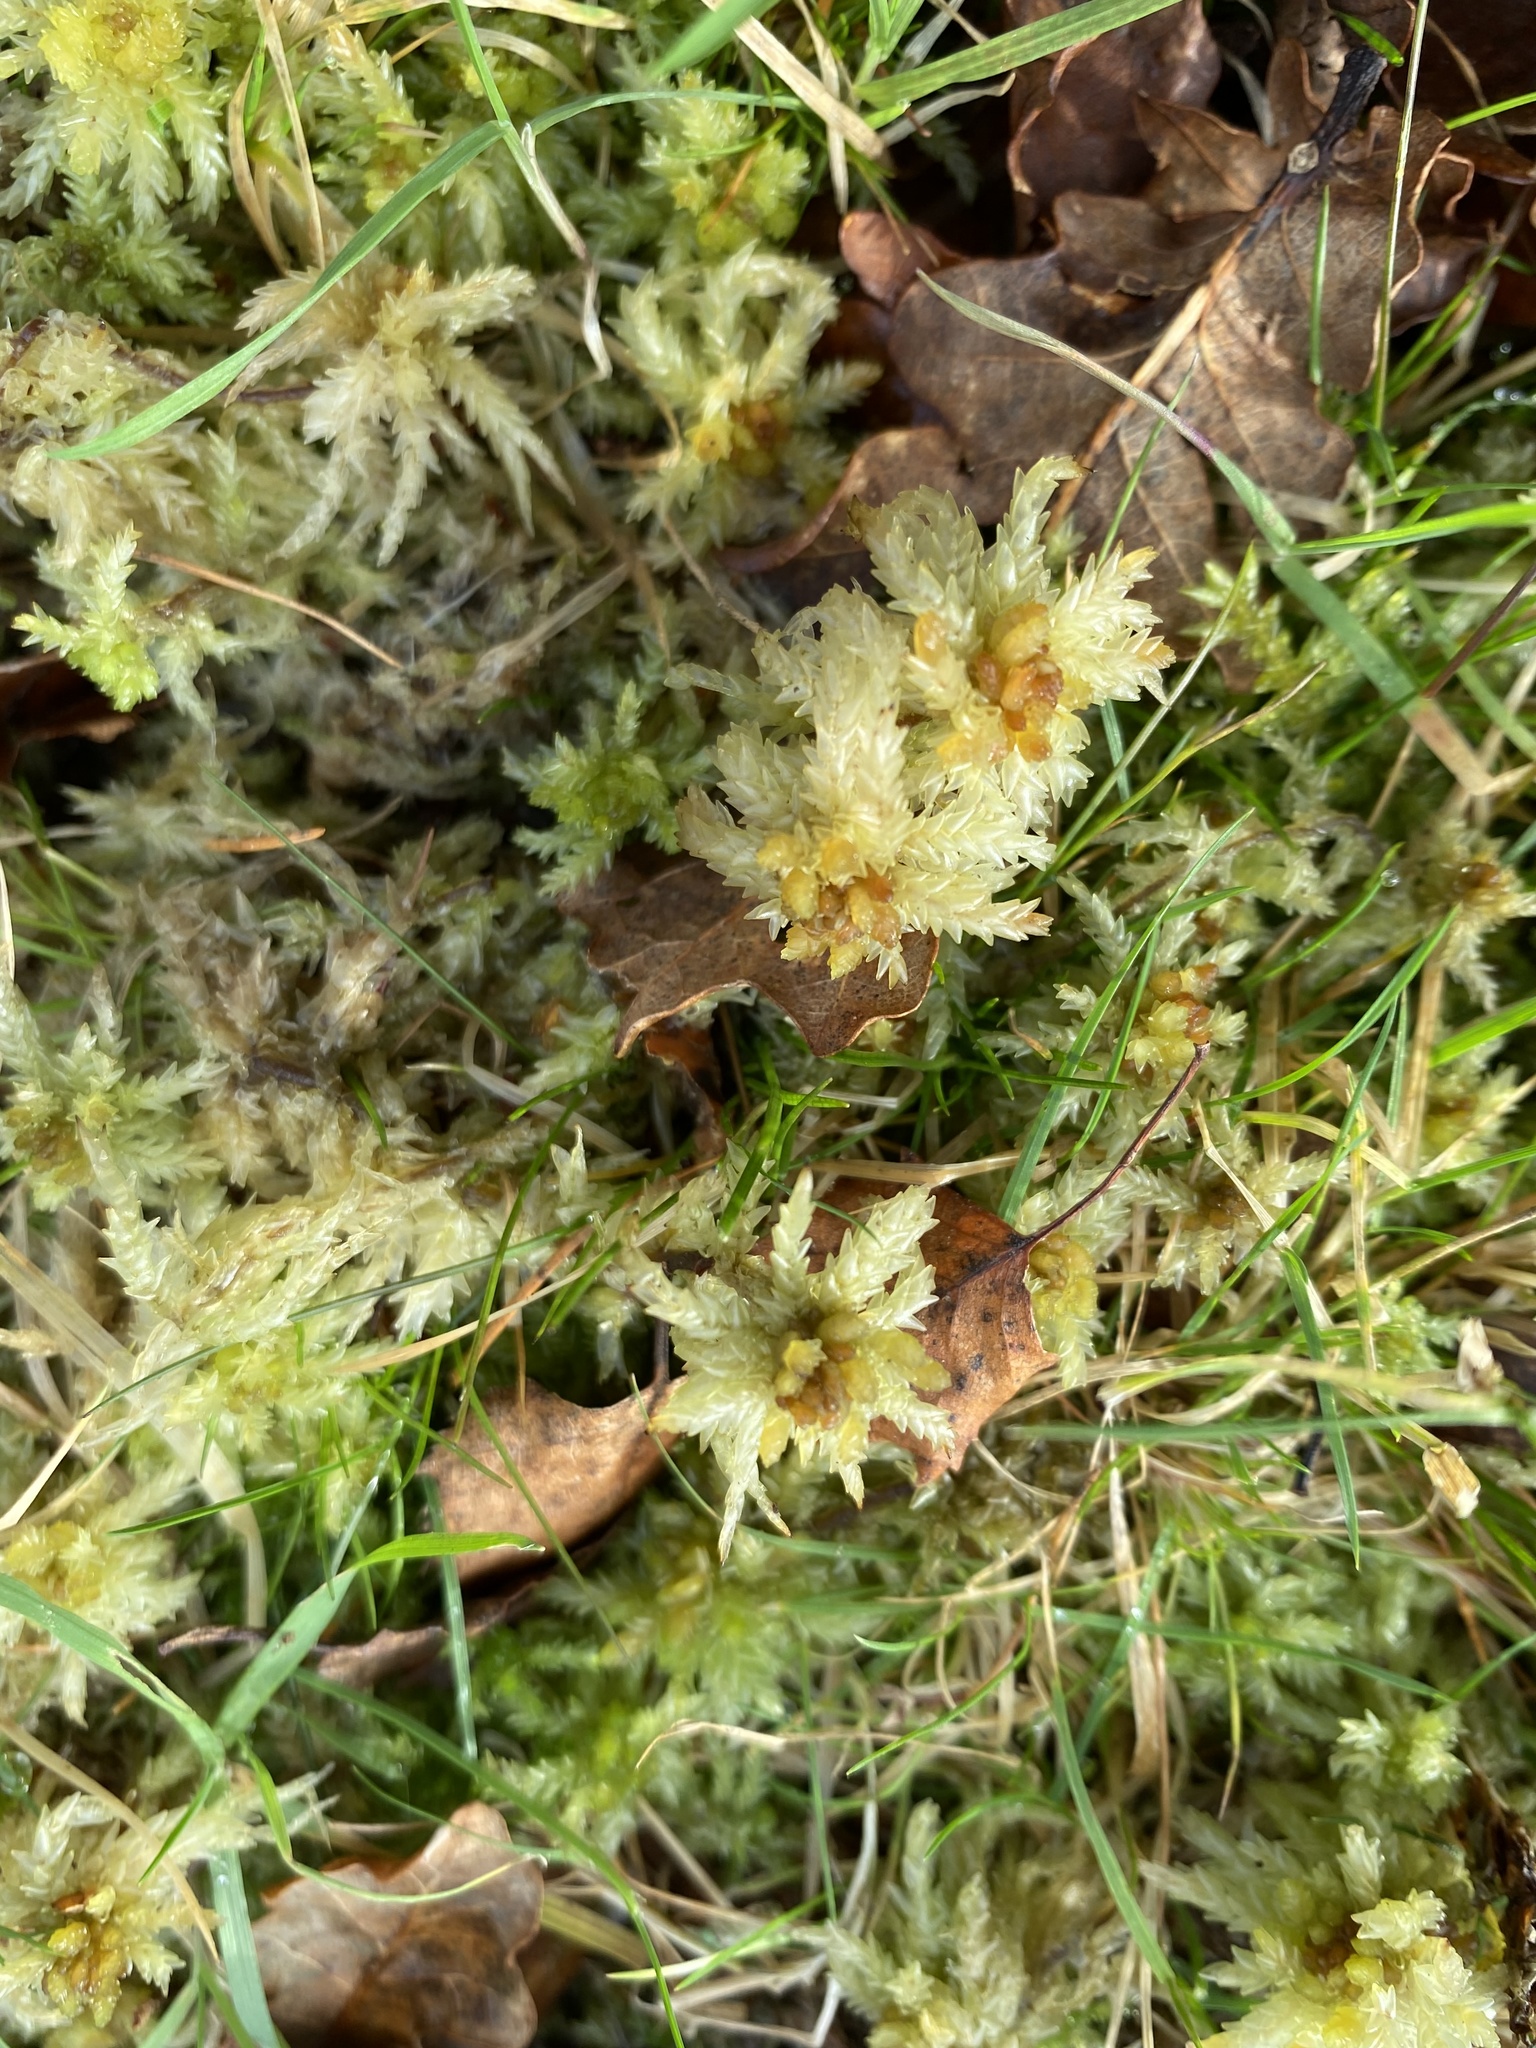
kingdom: Plantae
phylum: Bryophyta
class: Sphagnopsida
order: Sphagnales
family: Sphagnaceae
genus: Sphagnum
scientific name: Sphagnum palustre
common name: Blunt-leaved bog-moss
